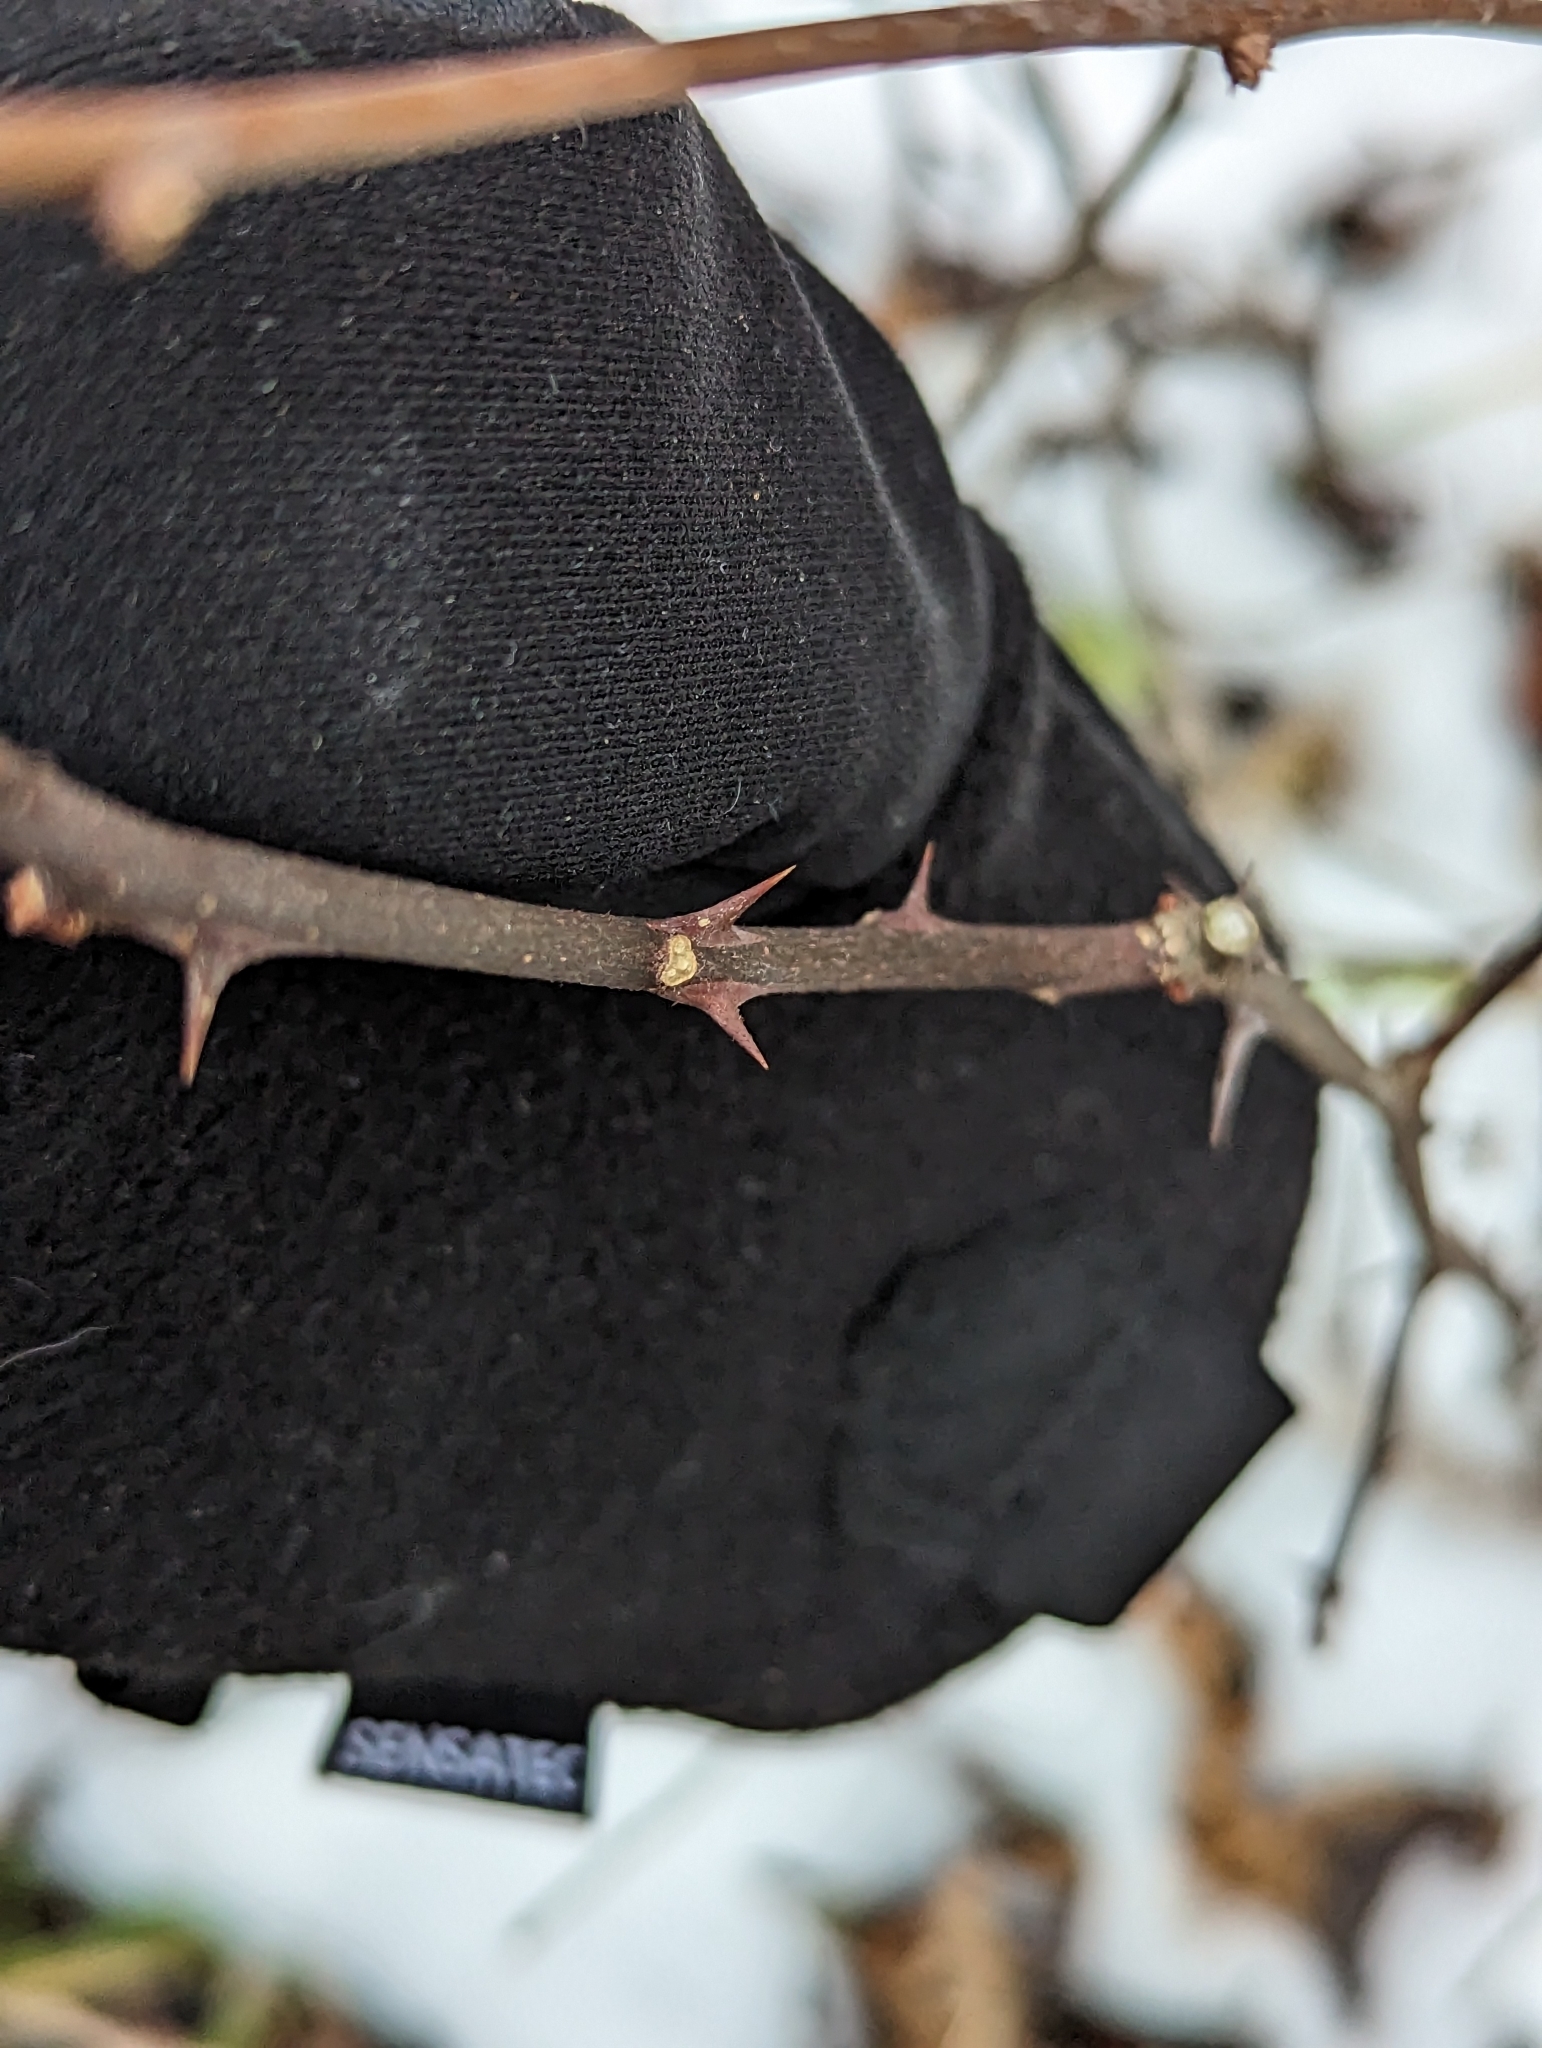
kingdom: Plantae
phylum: Tracheophyta
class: Magnoliopsida
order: Sapindales
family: Rutaceae
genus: Zanthoxylum
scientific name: Zanthoxylum americanum
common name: Northern prickly-ash
